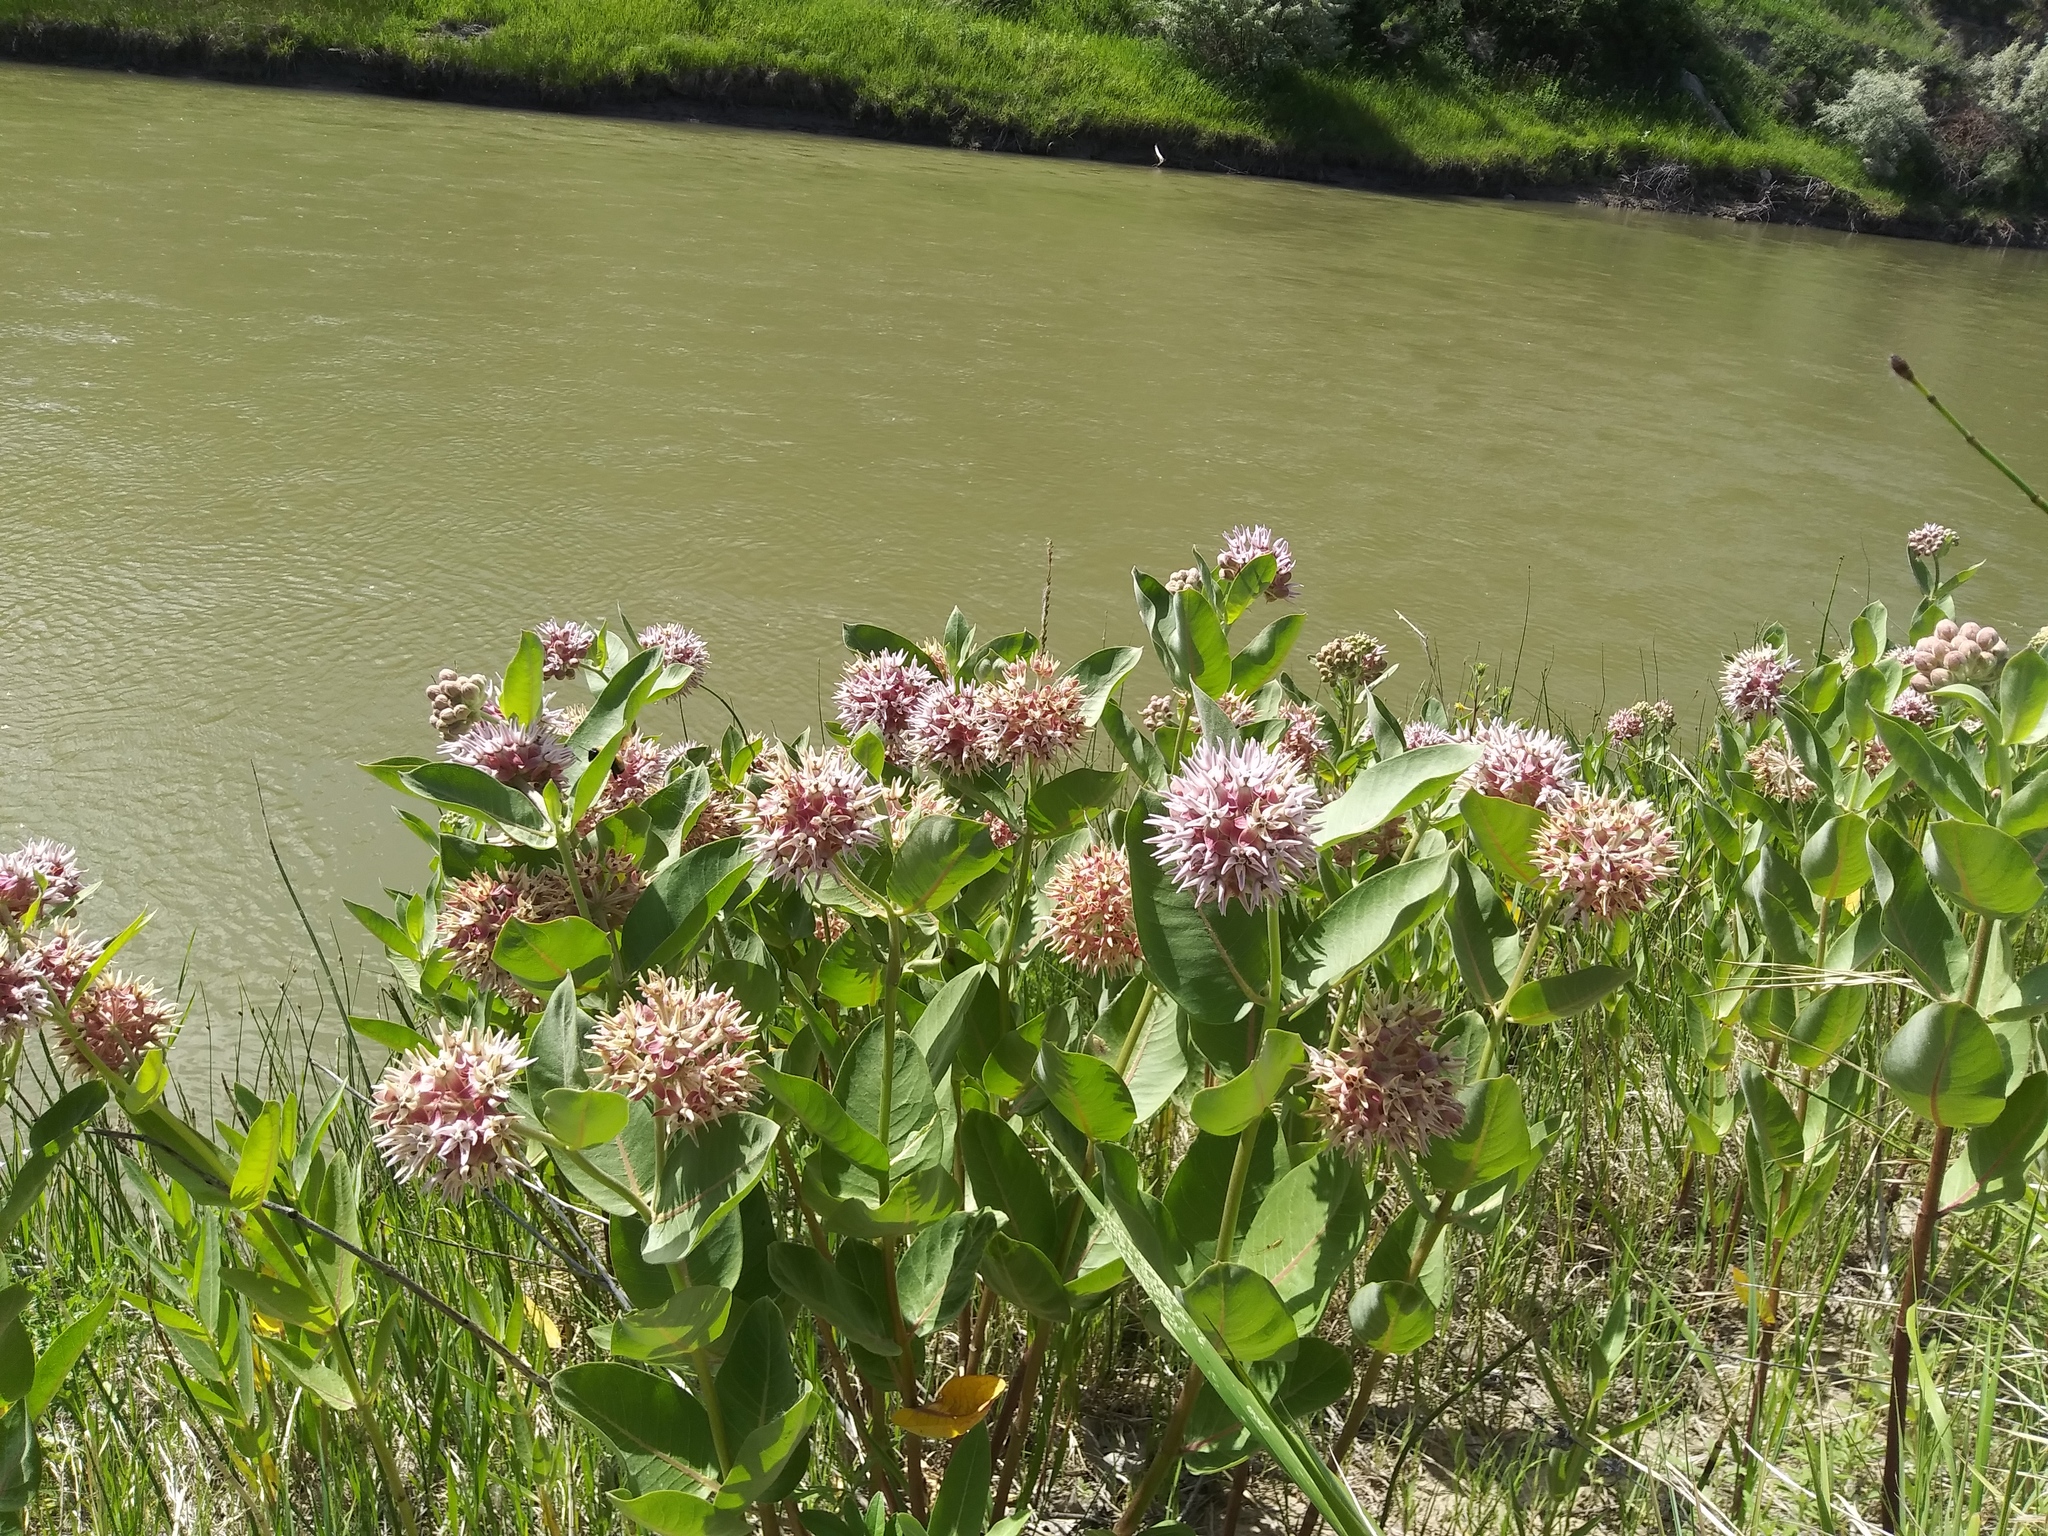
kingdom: Plantae
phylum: Tracheophyta
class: Magnoliopsida
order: Gentianales
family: Apocynaceae
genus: Asclepias
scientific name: Asclepias speciosa
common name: Showy milkweed
